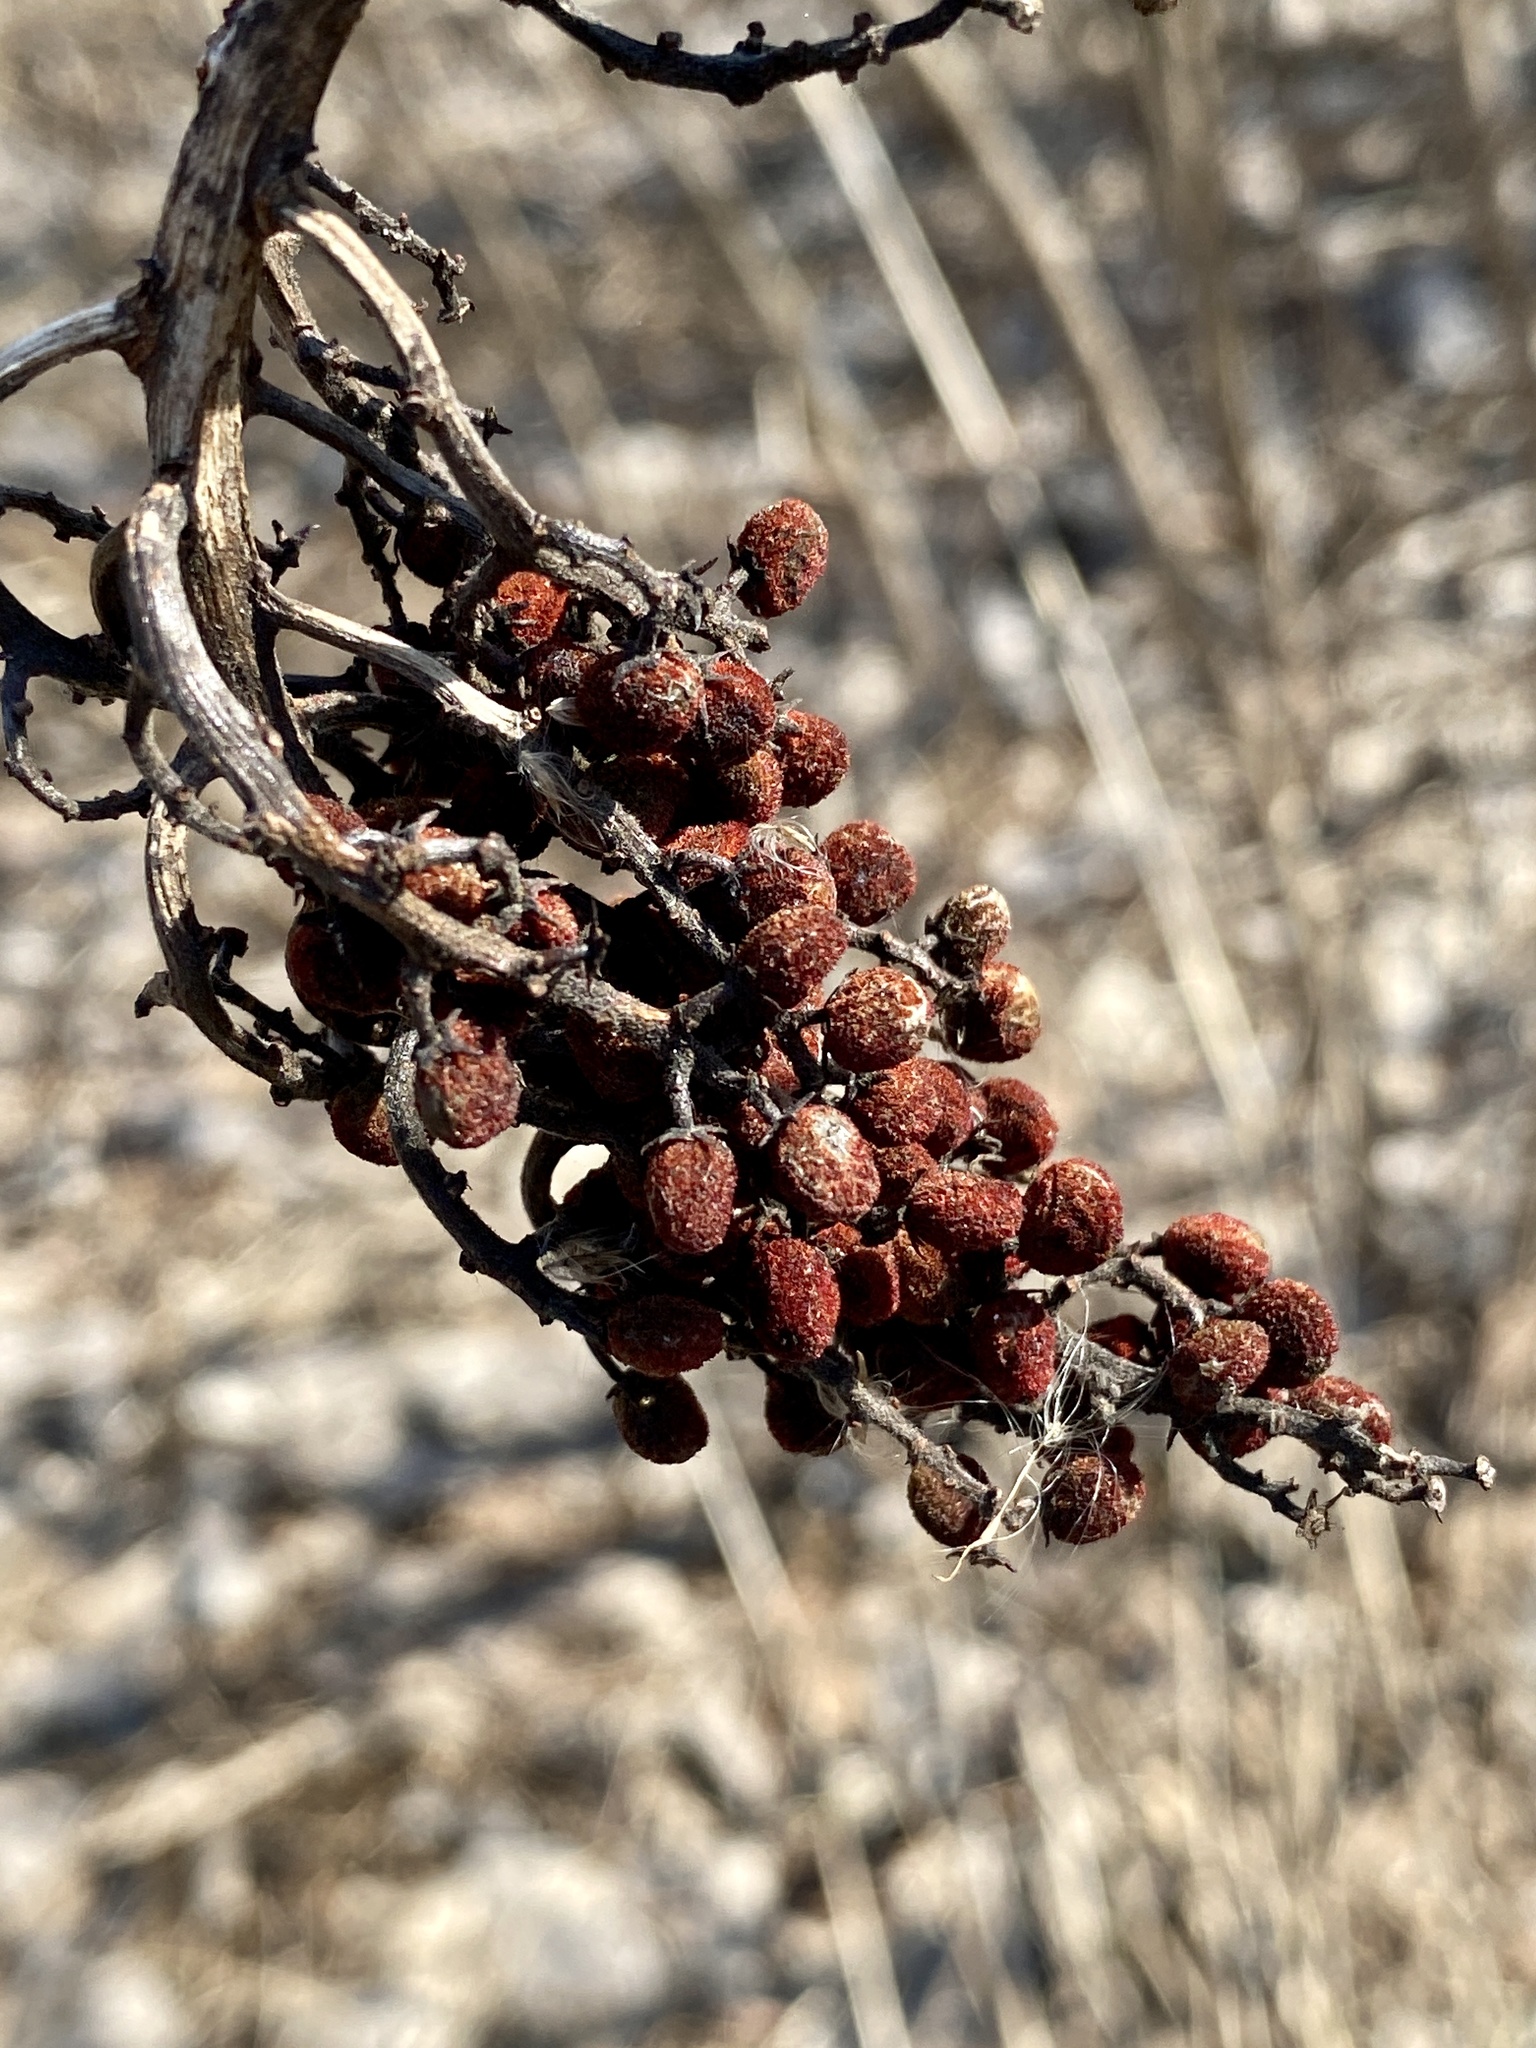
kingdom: Plantae
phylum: Tracheophyta
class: Magnoliopsida
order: Sapindales
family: Anacardiaceae
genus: Rhus
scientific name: Rhus glabra
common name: Scarlet sumac
